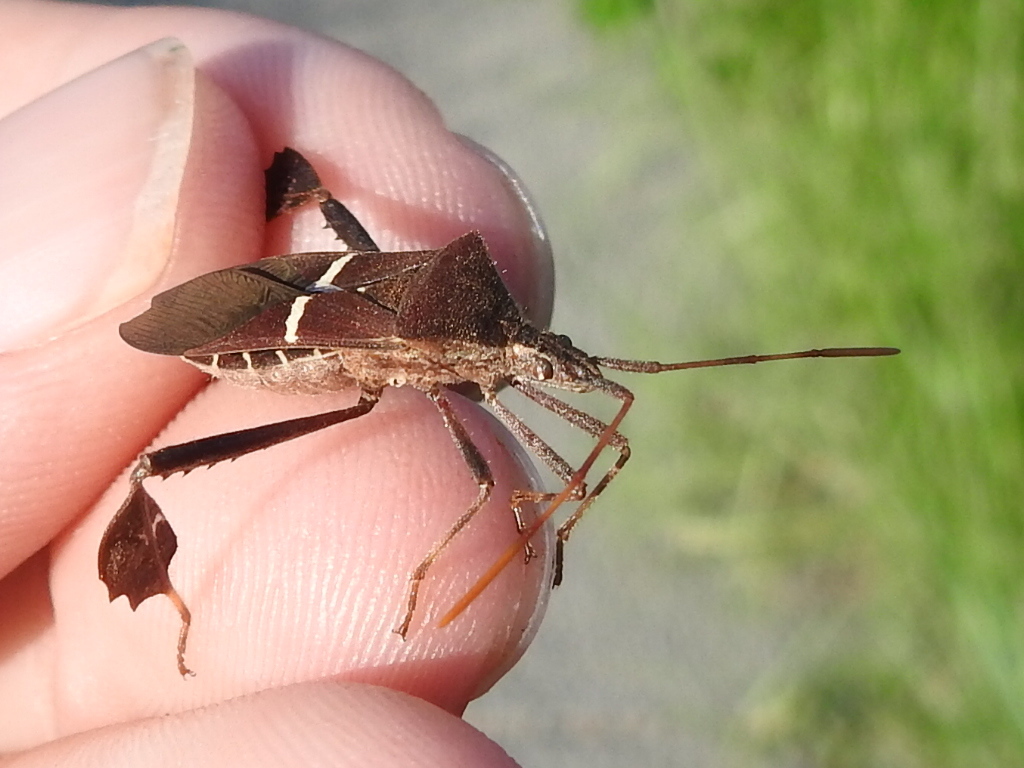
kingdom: Animalia
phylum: Arthropoda
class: Insecta
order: Hemiptera
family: Coreidae
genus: Leptoglossus
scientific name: Leptoglossus phyllopus
